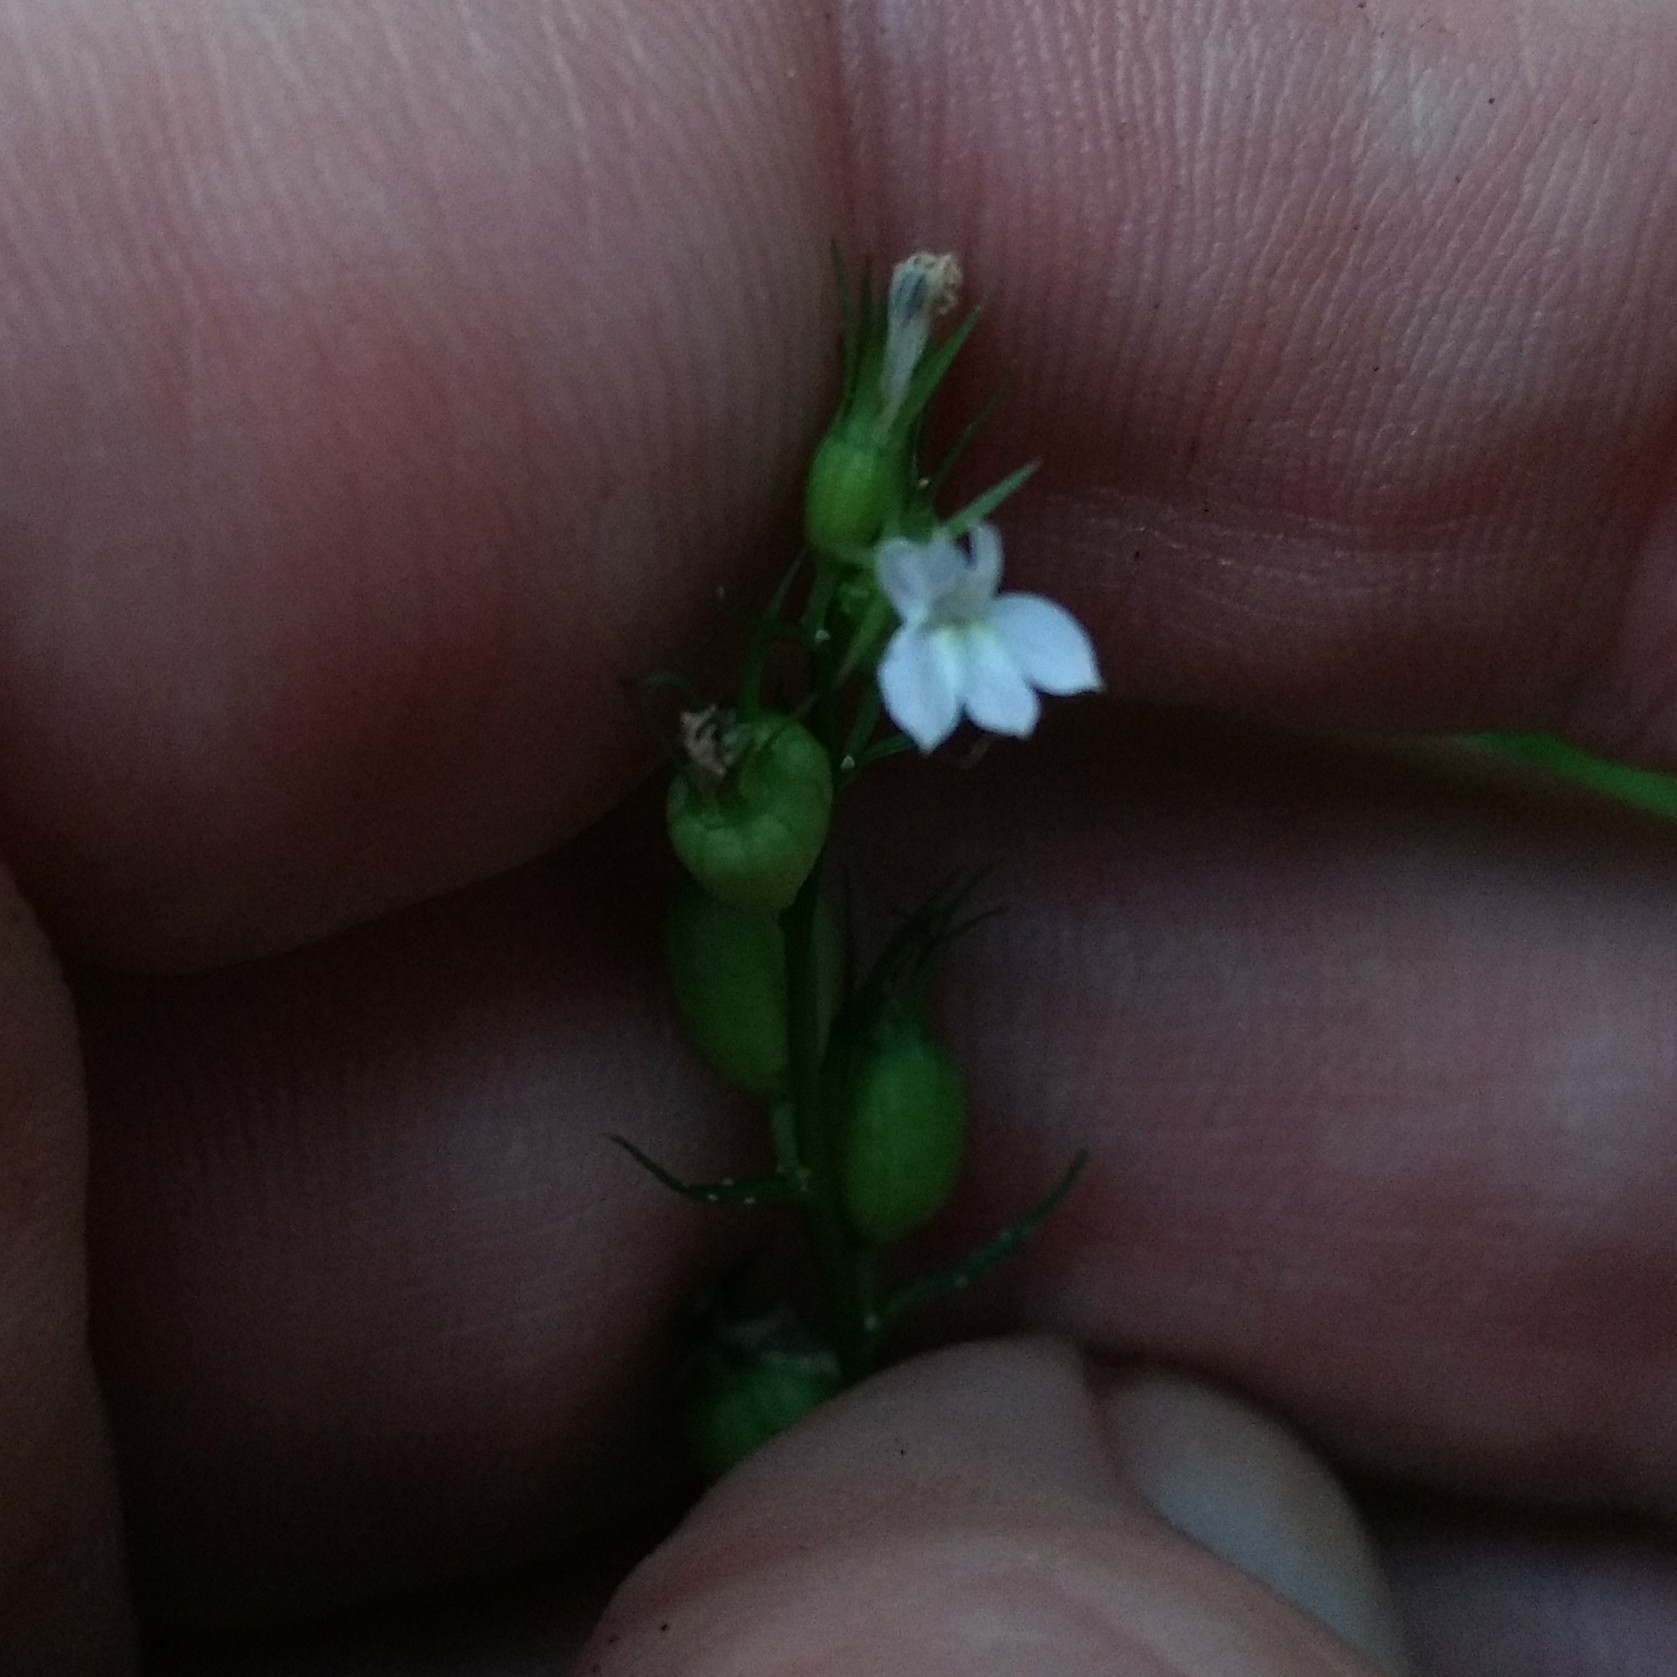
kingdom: Plantae
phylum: Tracheophyta
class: Magnoliopsida
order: Asterales
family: Campanulaceae
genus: Lobelia
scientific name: Lobelia inflata
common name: Indian tobacco
